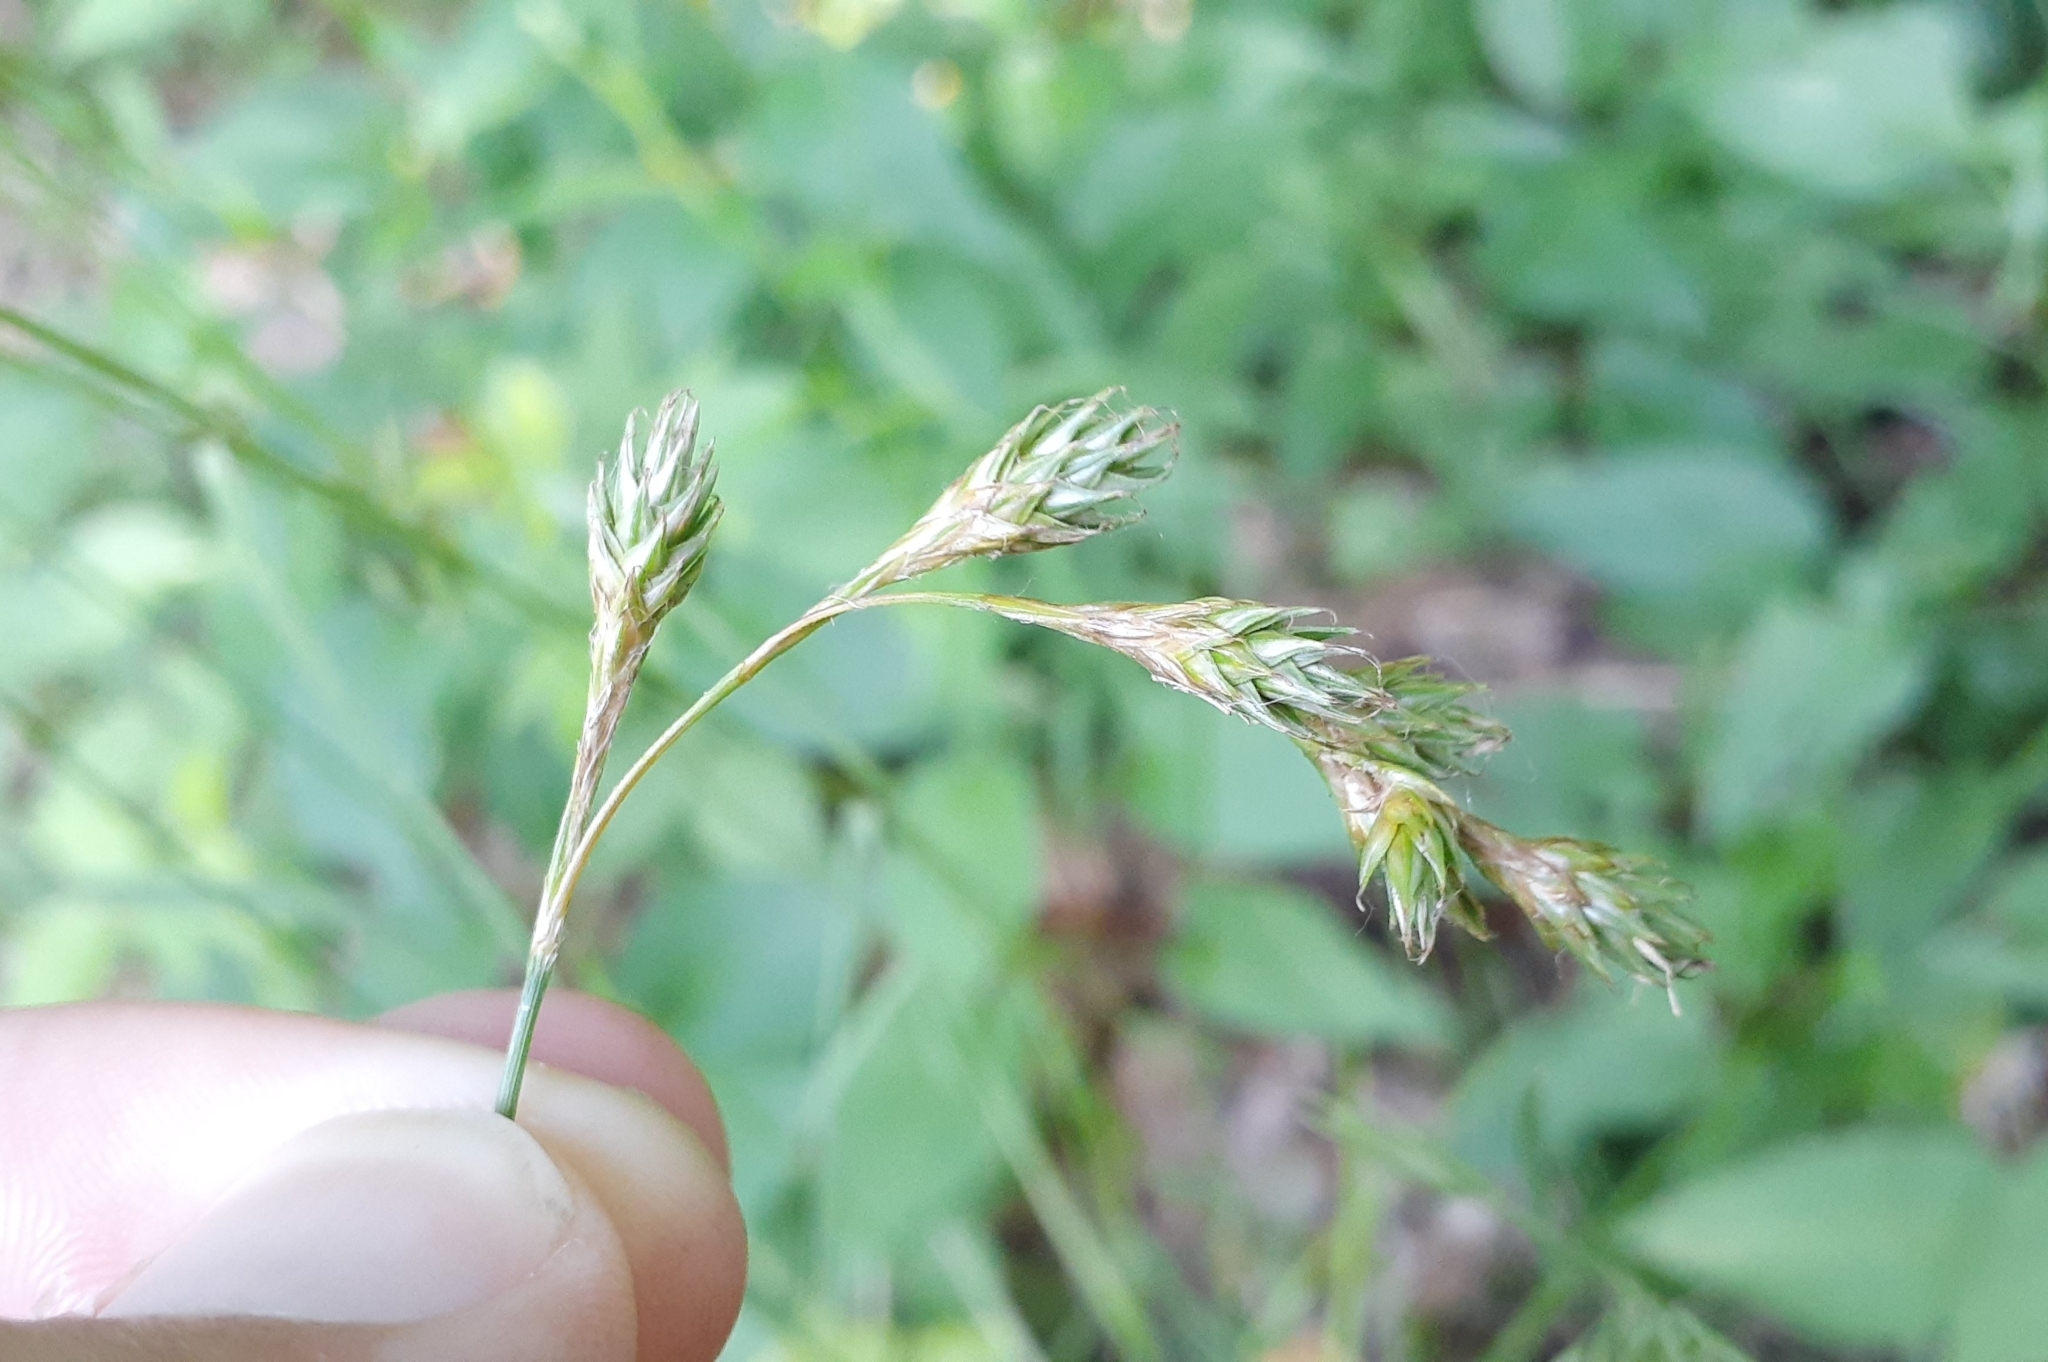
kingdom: Plantae
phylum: Tracheophyta
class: Liliopsida
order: Poales
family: Cyperaceae
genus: Carex
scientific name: Carex foenea
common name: Bronze sedge
